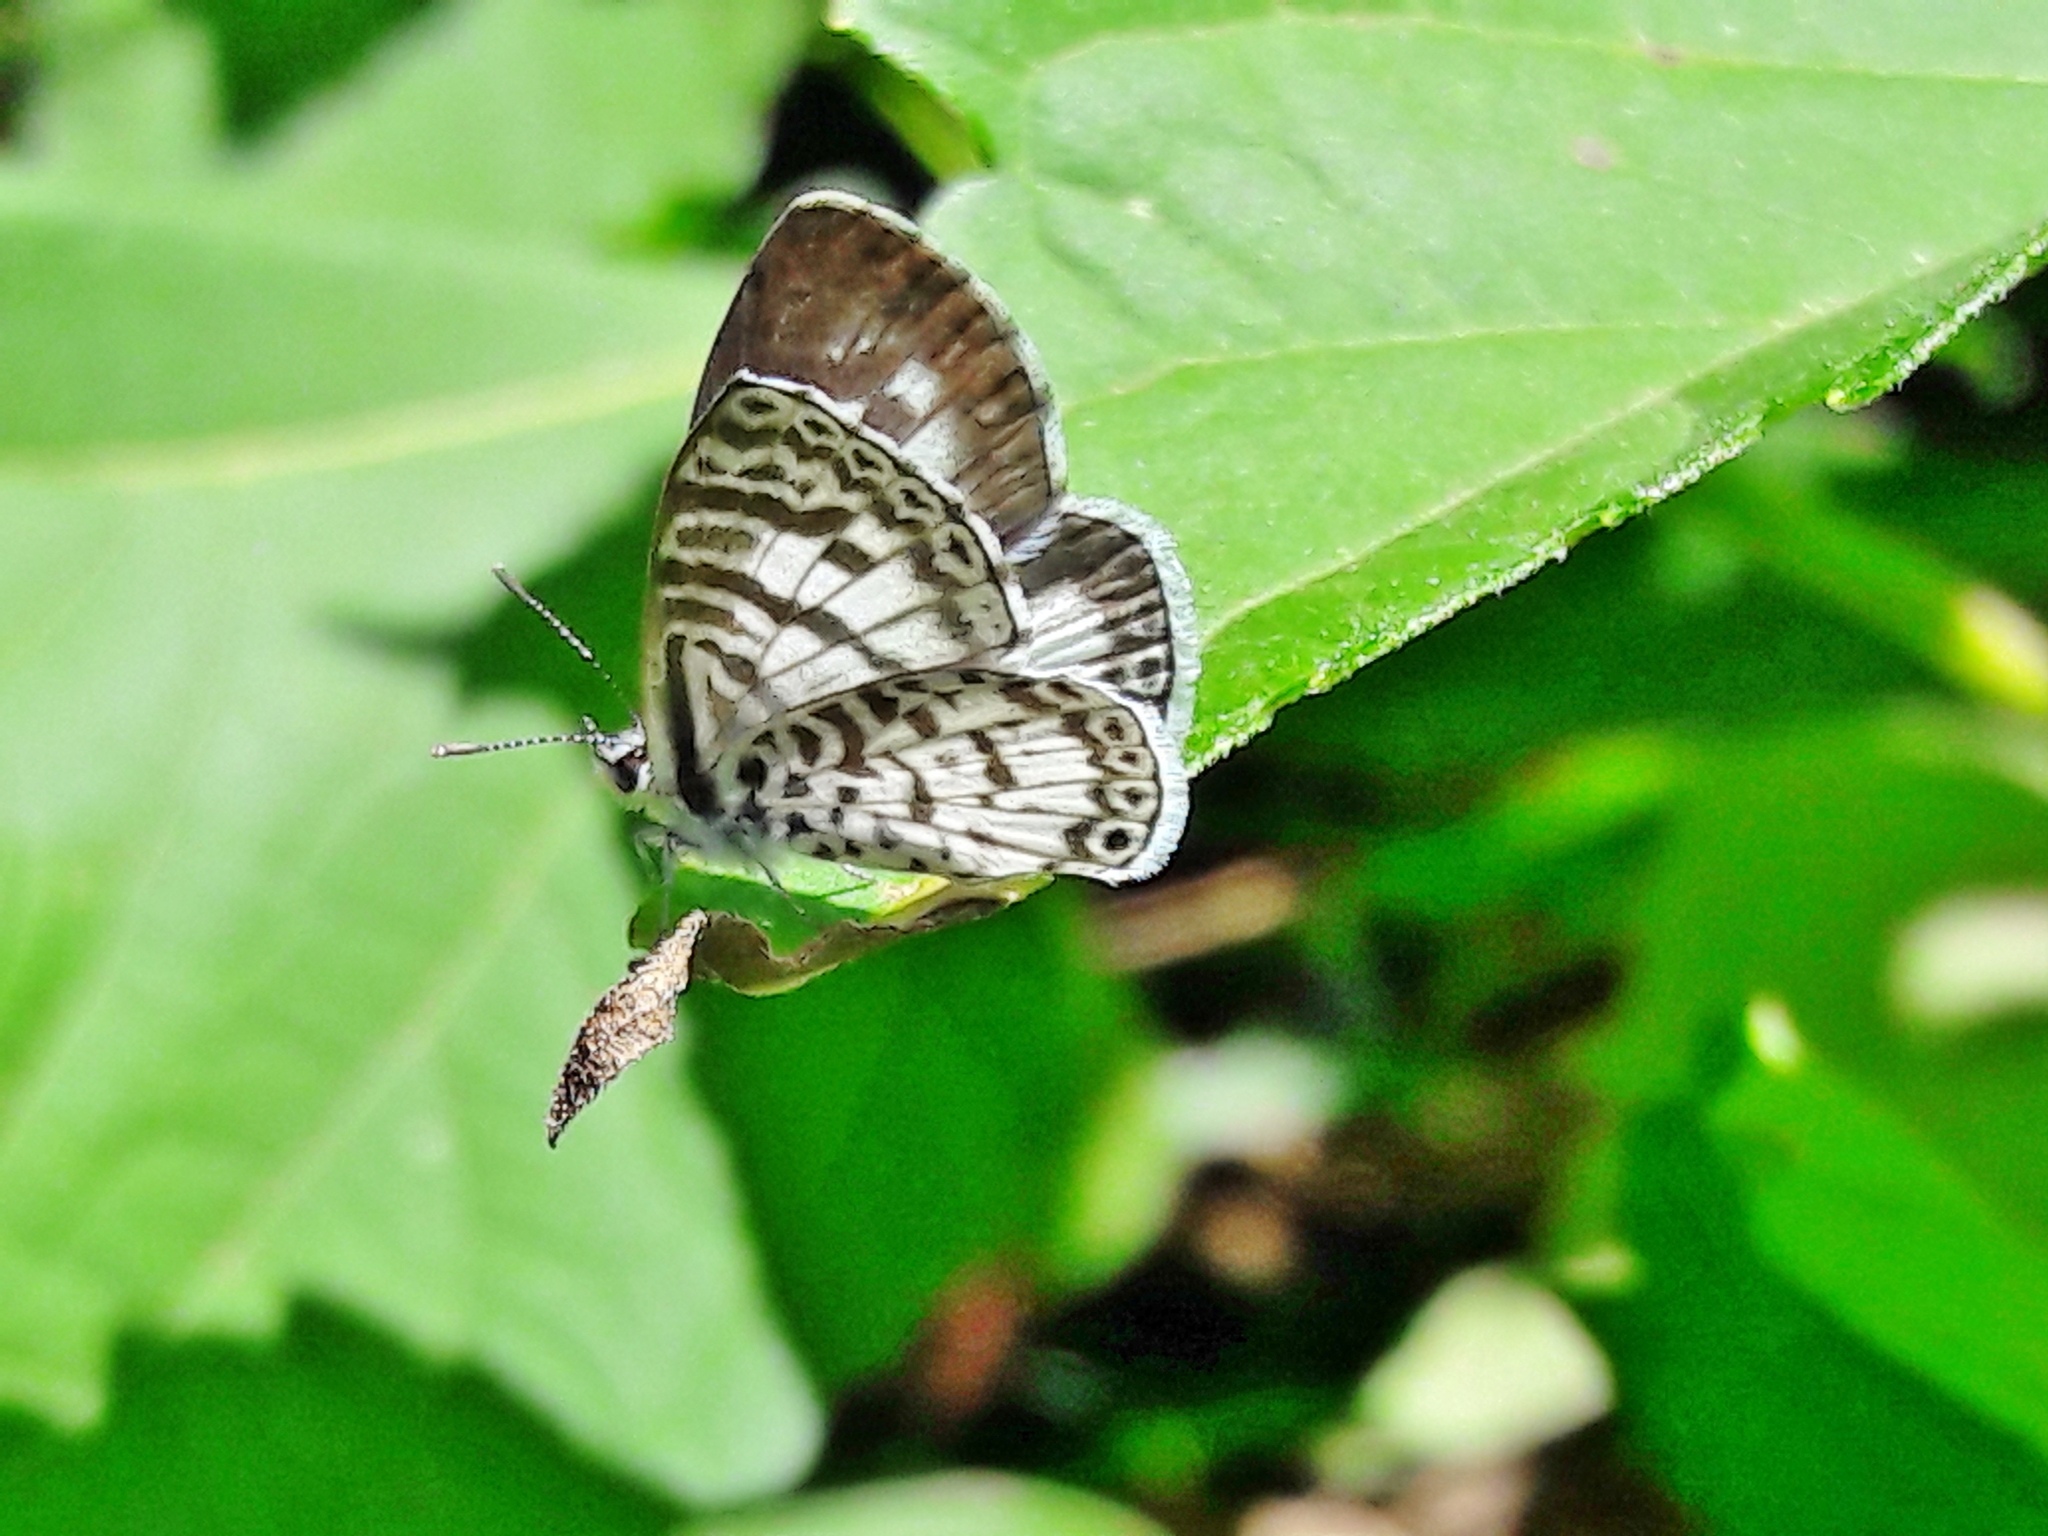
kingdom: Animalia
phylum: Arthropoda
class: Insecta
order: Lepidoptera
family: Lycaenidae
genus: Leptotes
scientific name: Leptotes cassius
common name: Cassius blue
